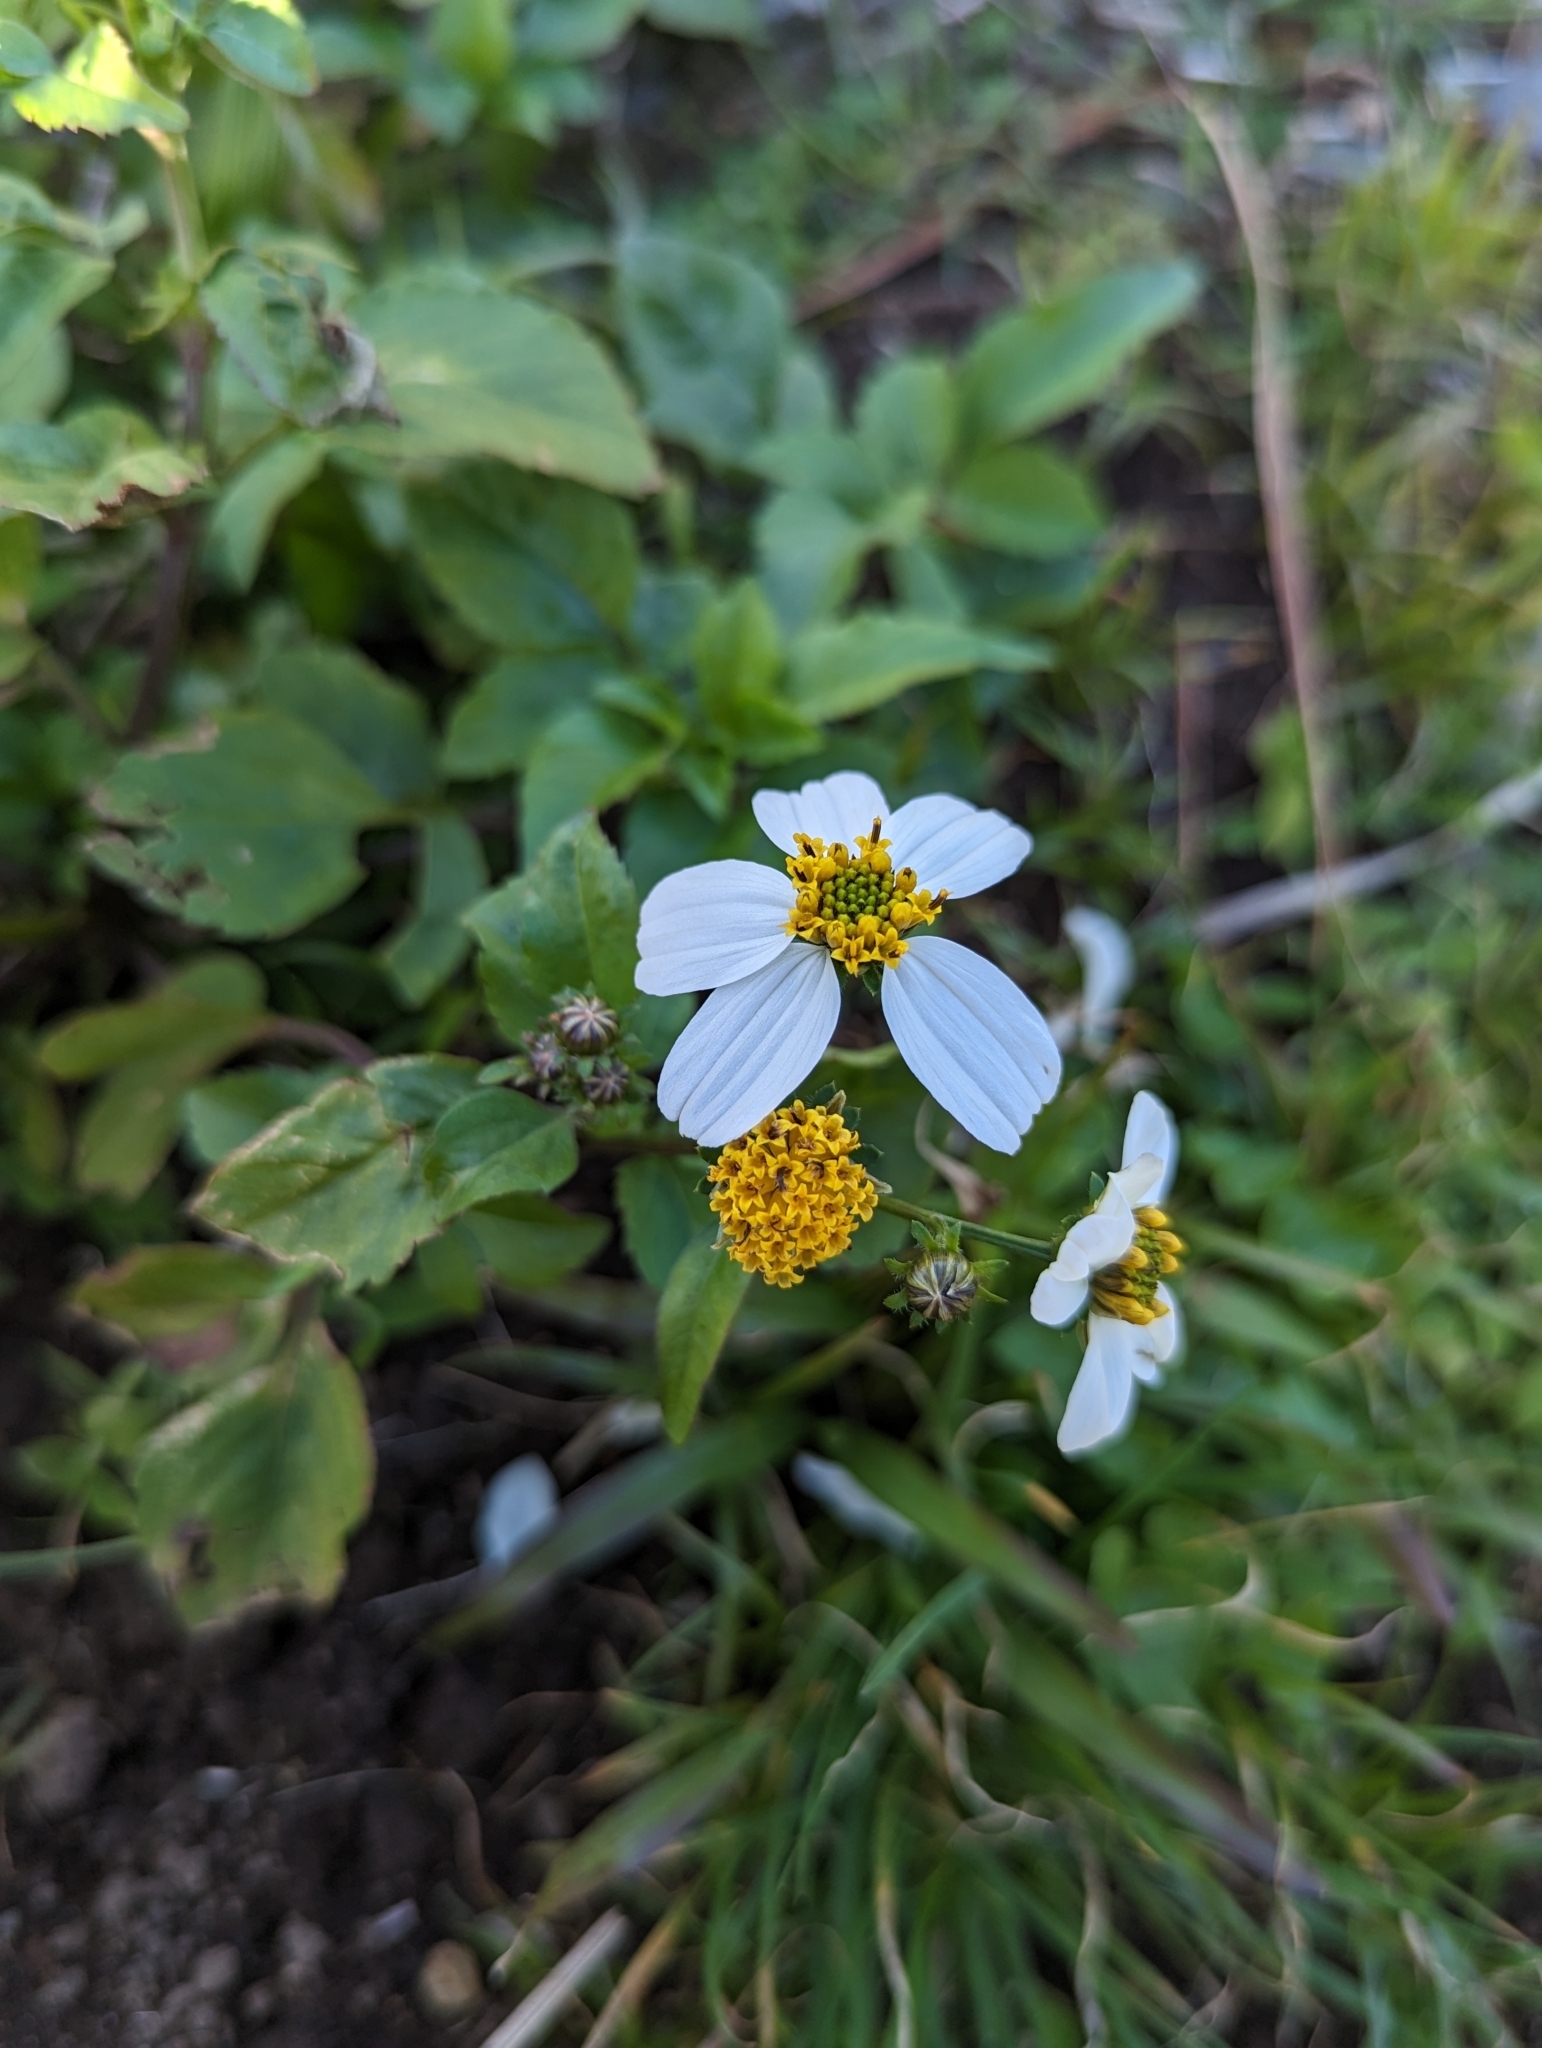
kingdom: Plantae
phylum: Tracheophyta
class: Magnoliopsida
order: Asterales
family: Asteraceae
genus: Bidens
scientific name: Bidens alba
